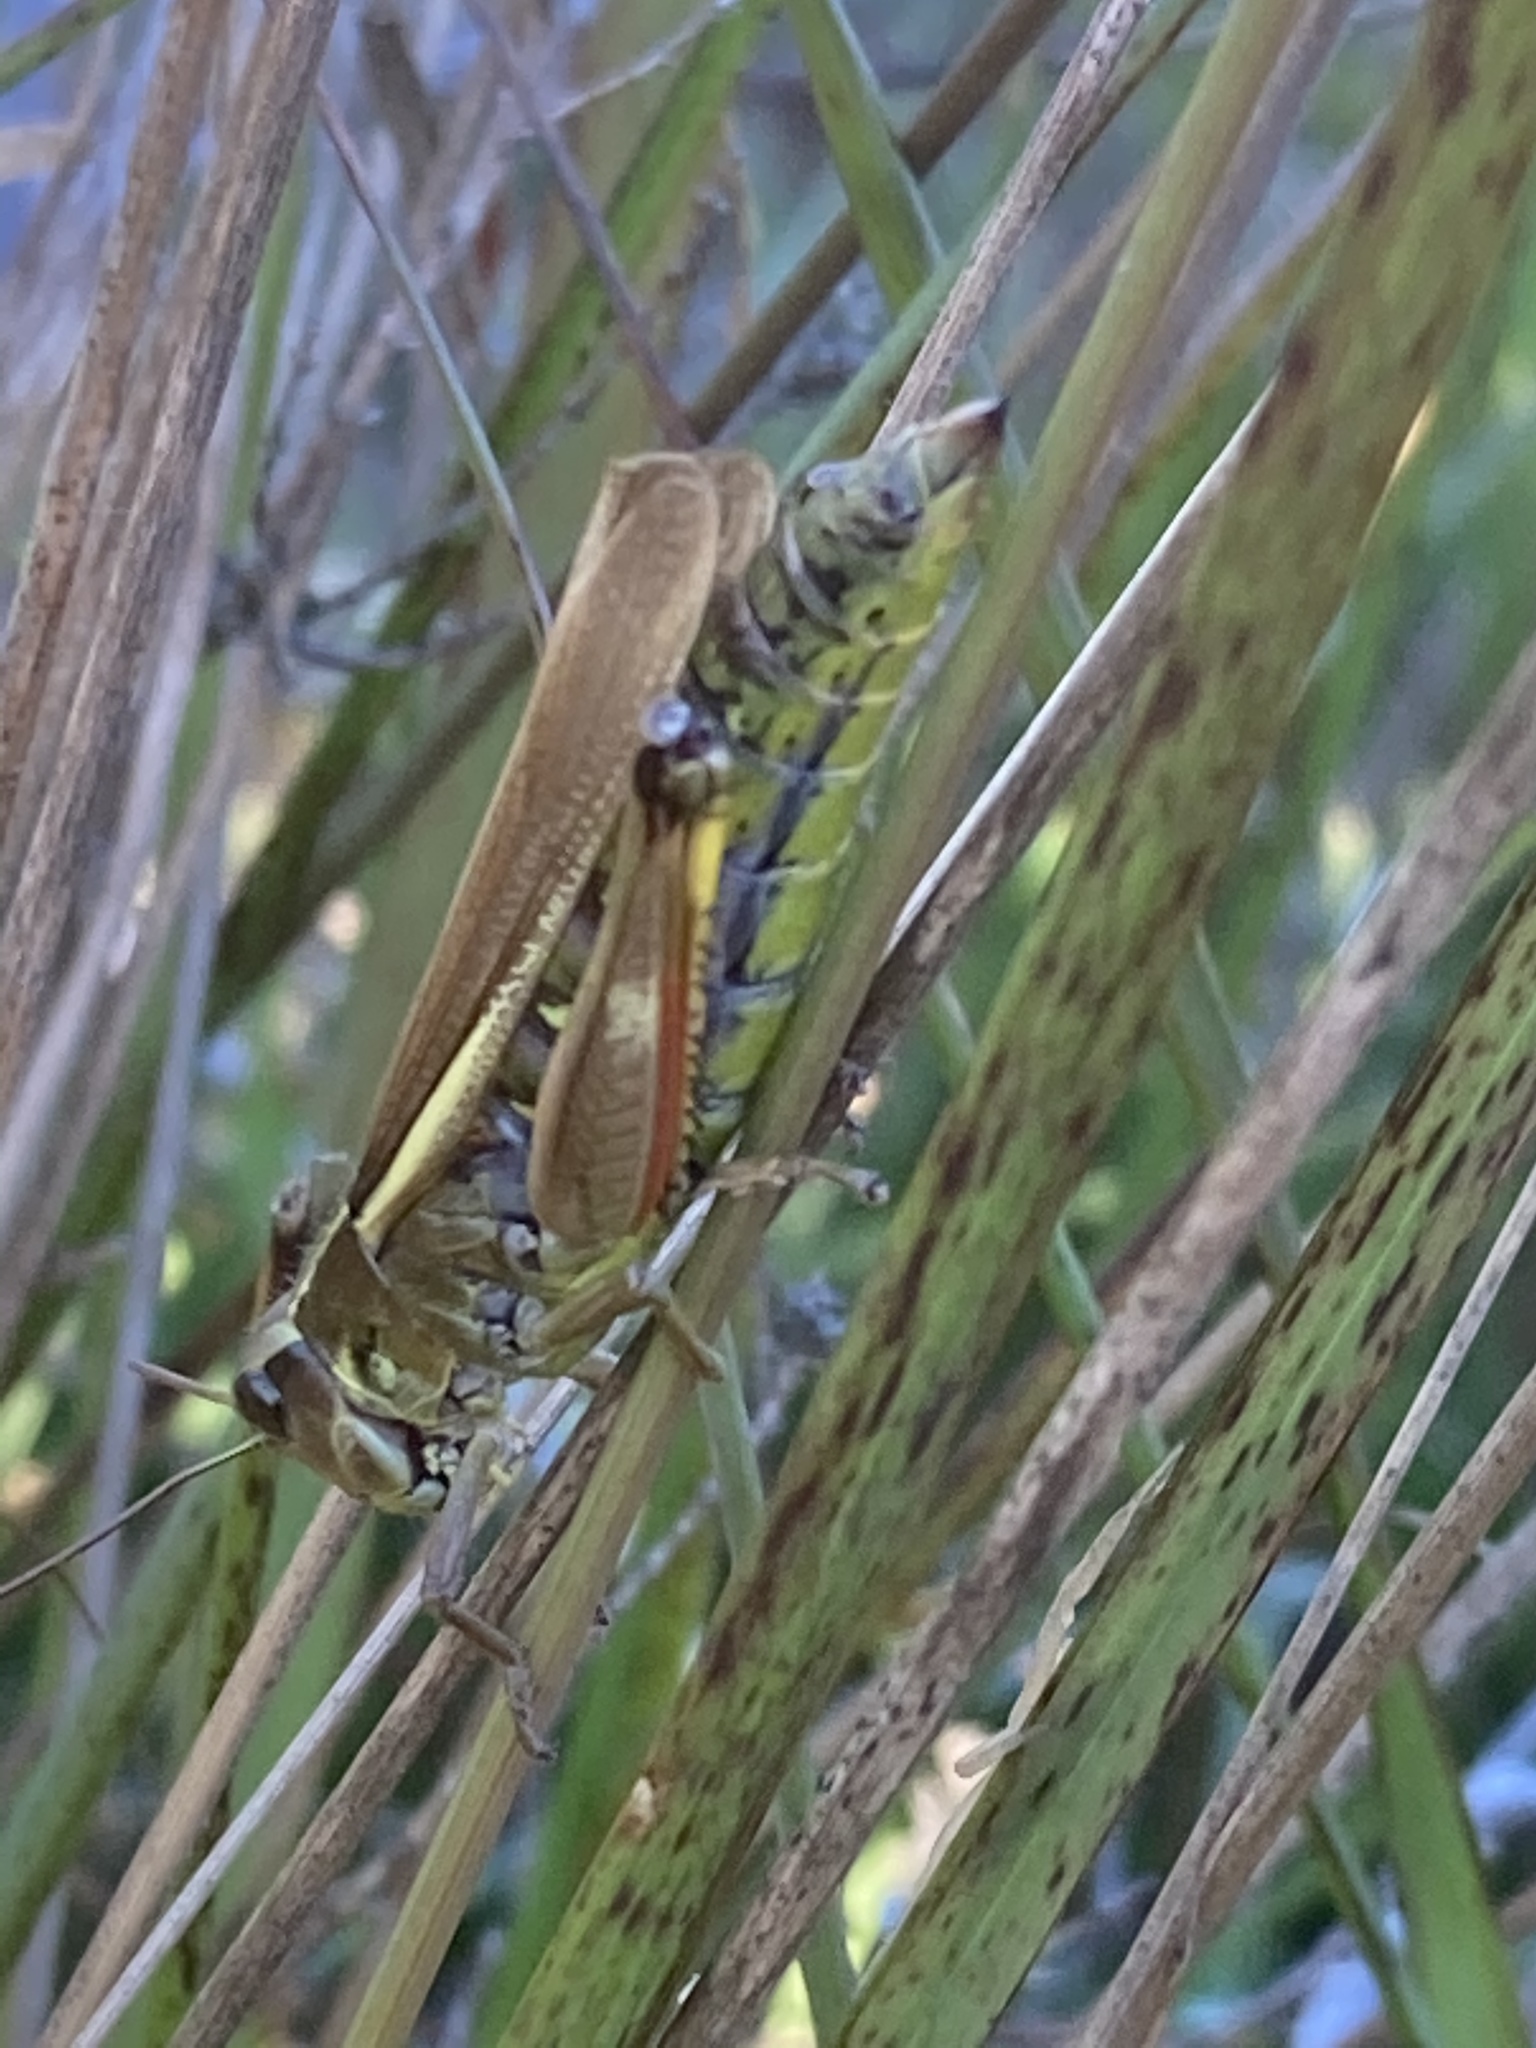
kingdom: Animalia
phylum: Arthropoda
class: Insecta
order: Orthoptera
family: Acrididae
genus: Stethophyma
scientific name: Stethophyma grossum
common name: Large marsh grasshopper
